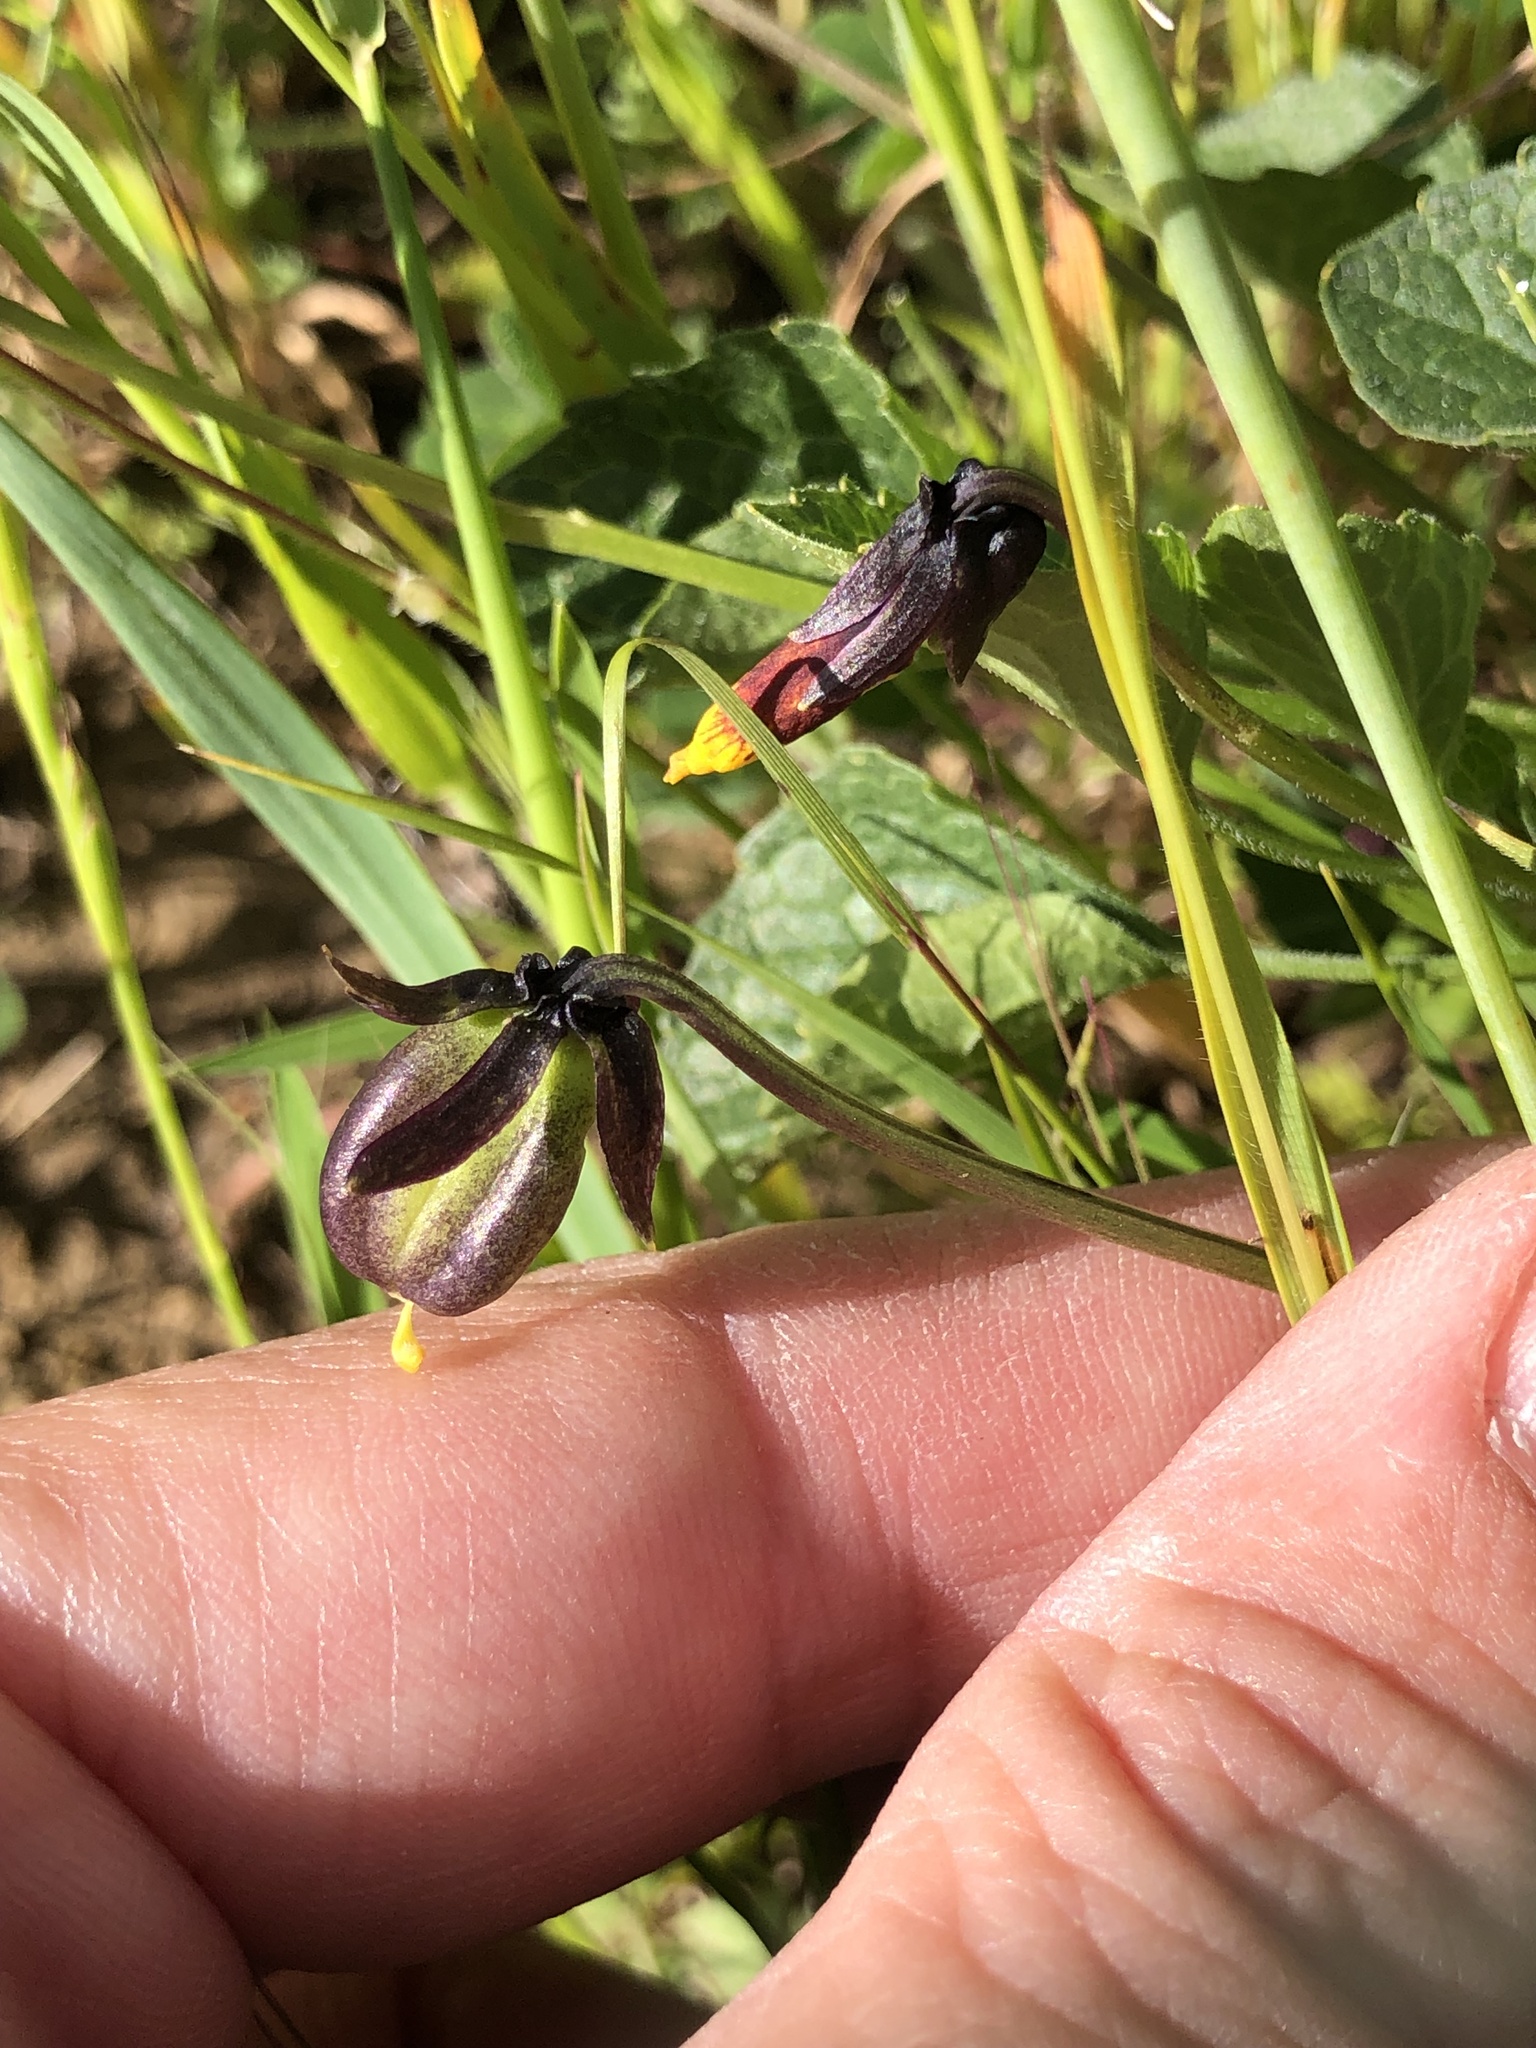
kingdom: Plantae
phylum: Tracheophyta
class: Magnoliopsida
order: Malpighiales
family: Violaceae
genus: Viola
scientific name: Viola pedunculata
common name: California golden violet
